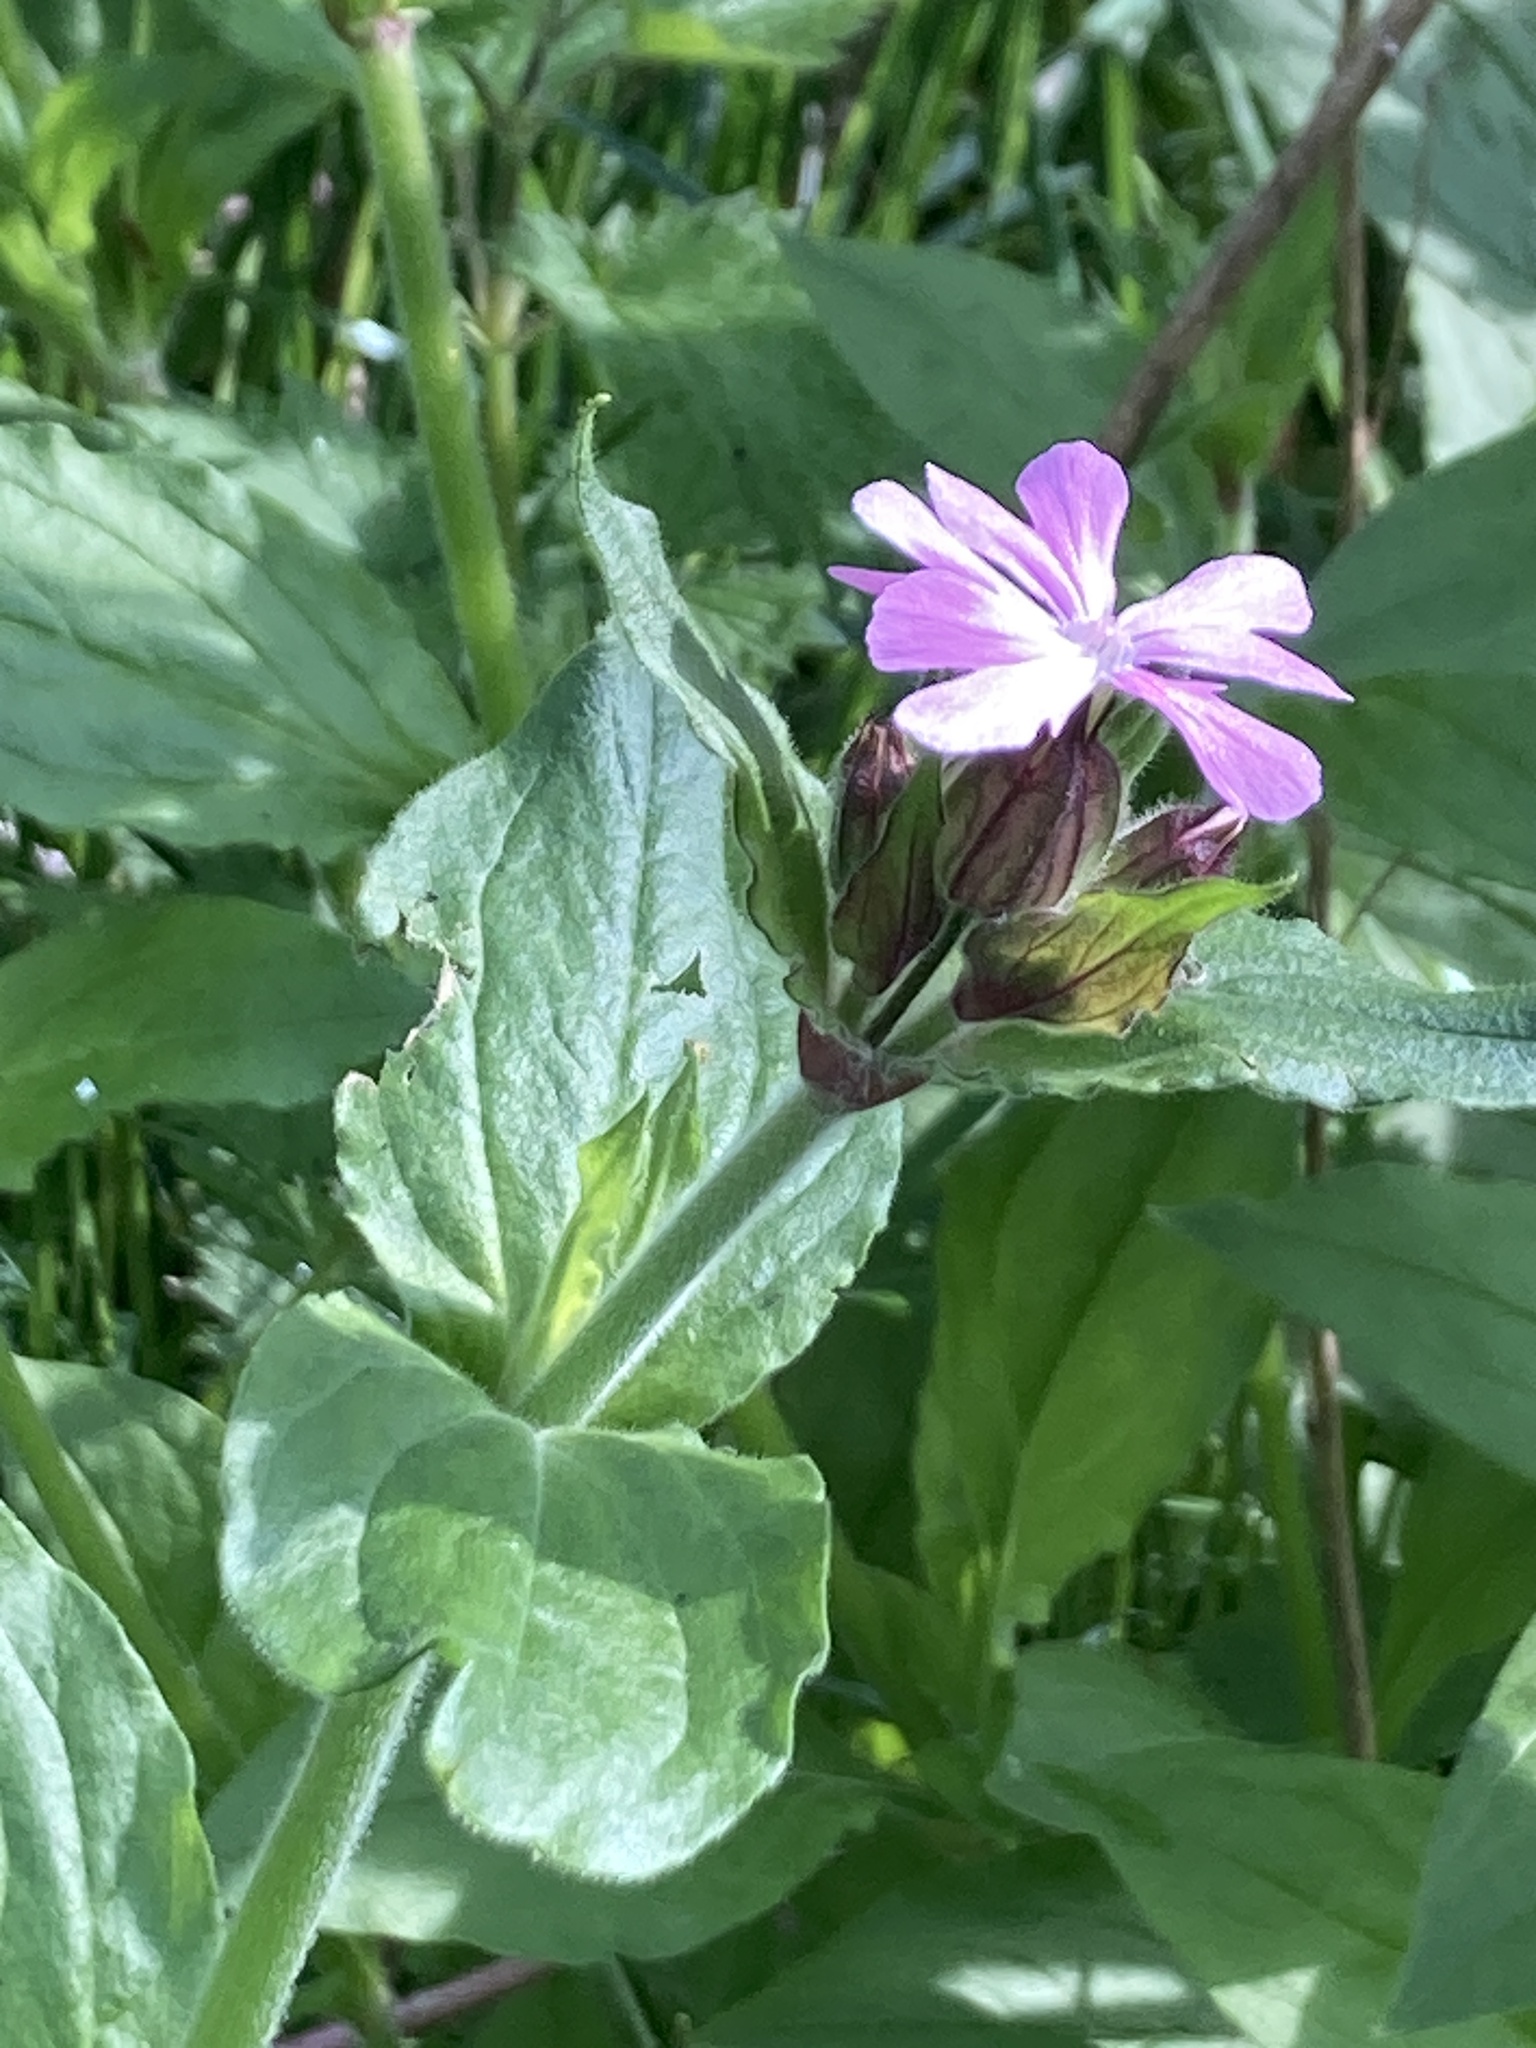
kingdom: Plantae
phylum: Tracheophyta
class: Magnoliopsida
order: Caryophyllales
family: Caryophyllaceae
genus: Silene
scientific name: Silene dioica
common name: Red campion
